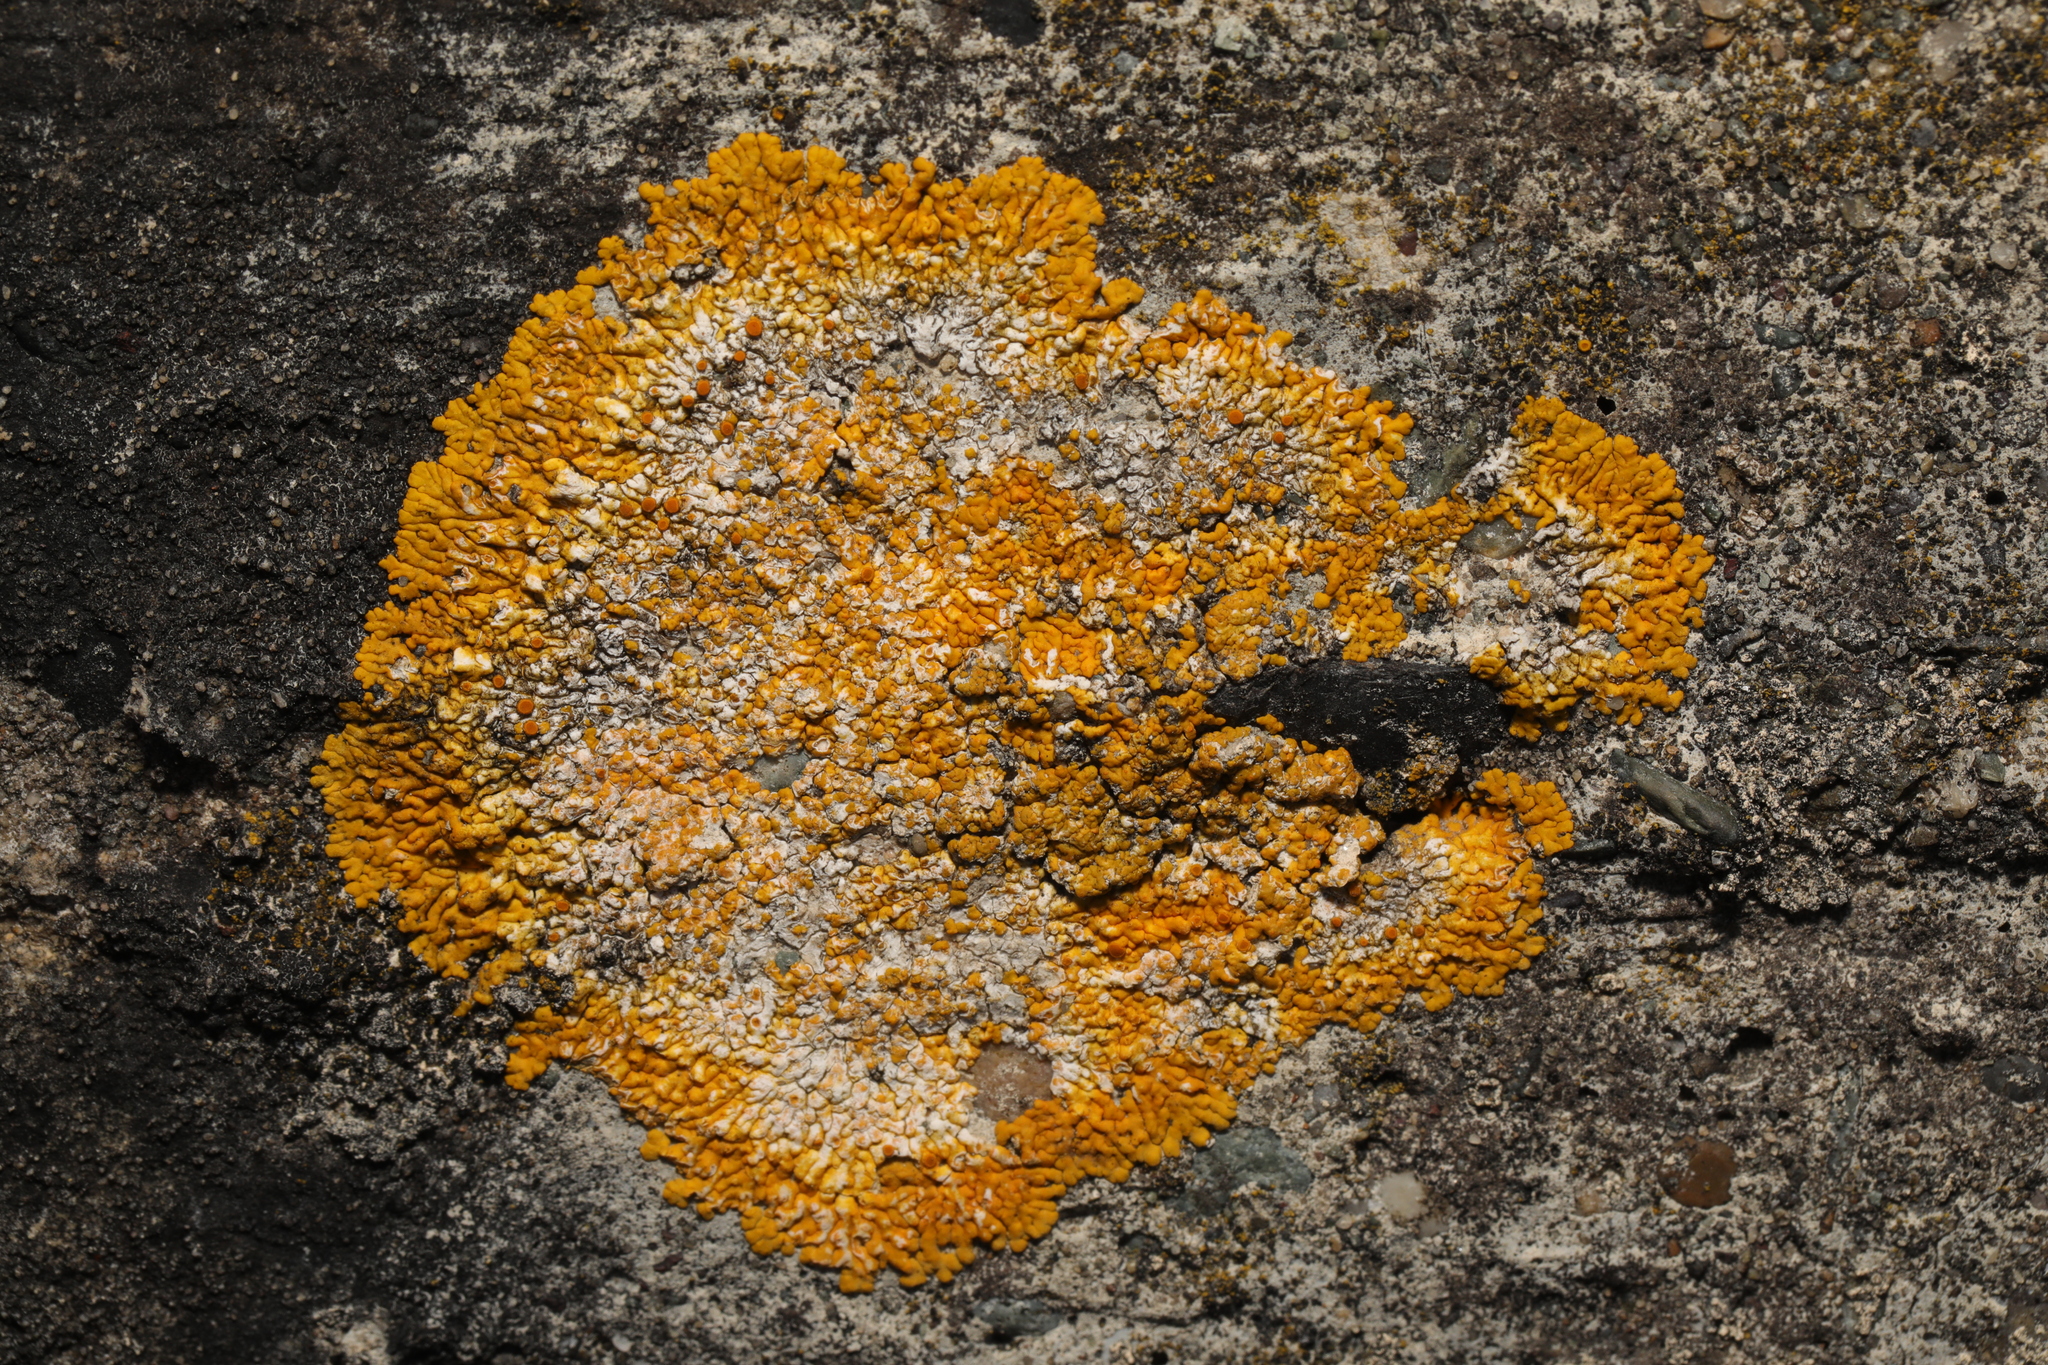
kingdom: Fungi
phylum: Ascomycota
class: Lecanoromycetes
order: Teloschistales
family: Teloschistaceae
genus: Variospora
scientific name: Variospora flavescens
